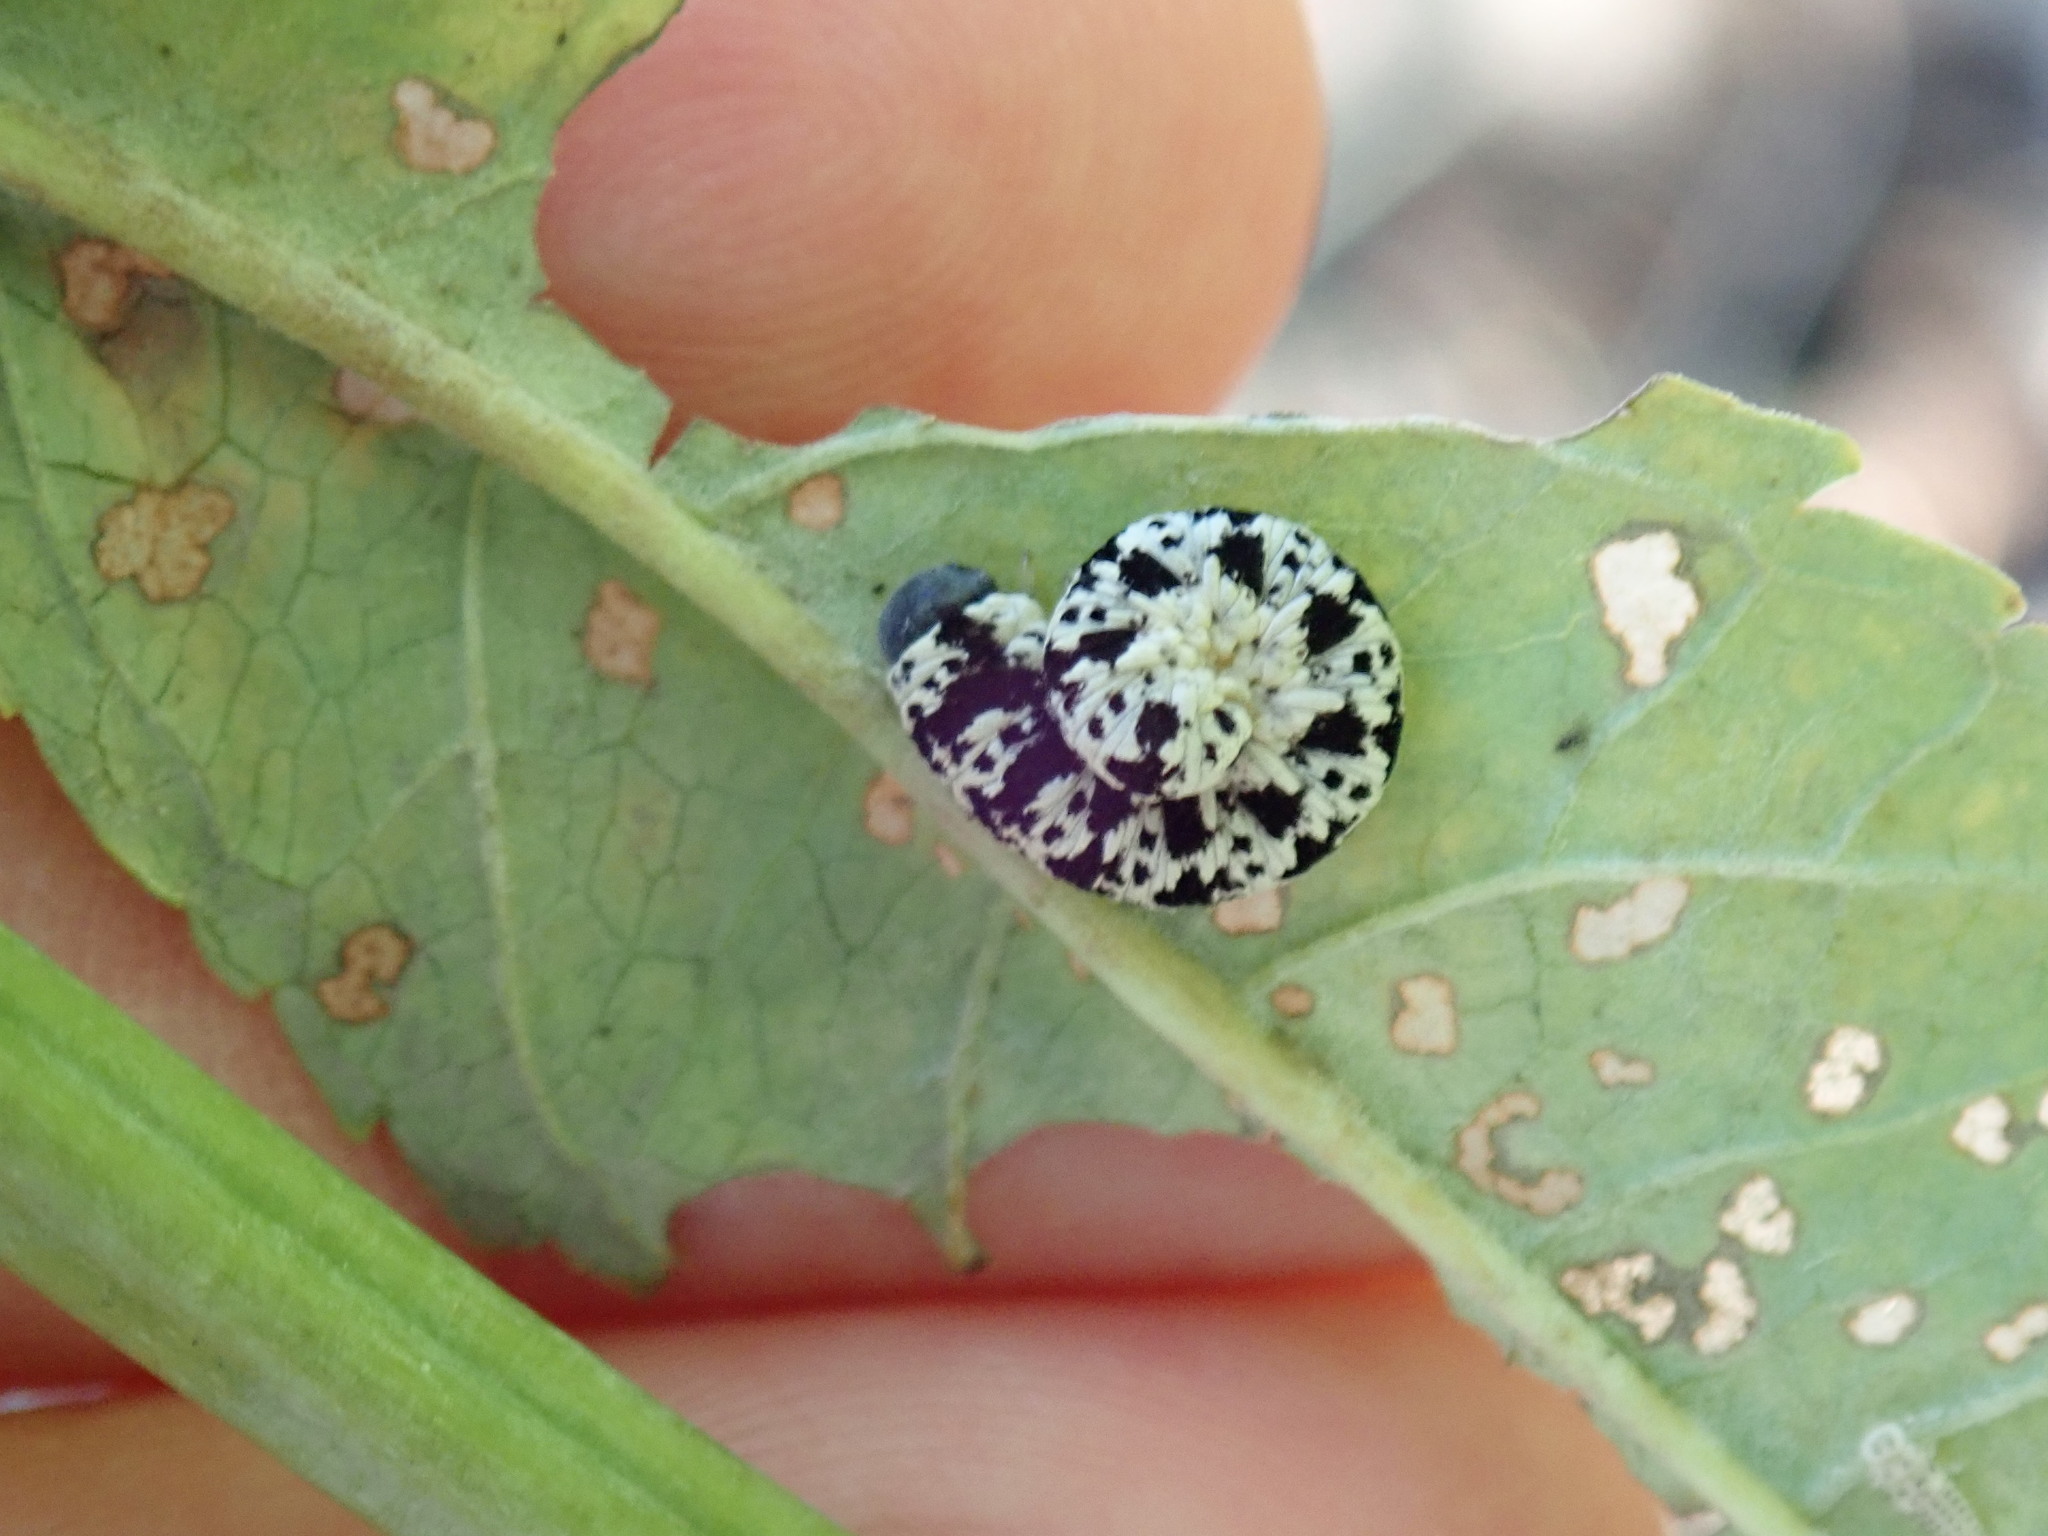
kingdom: Animalia
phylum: Arthropoda
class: Insecta
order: Hymenoptera
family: Tenthredinidae
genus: Tenthredo
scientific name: Tenthredo
